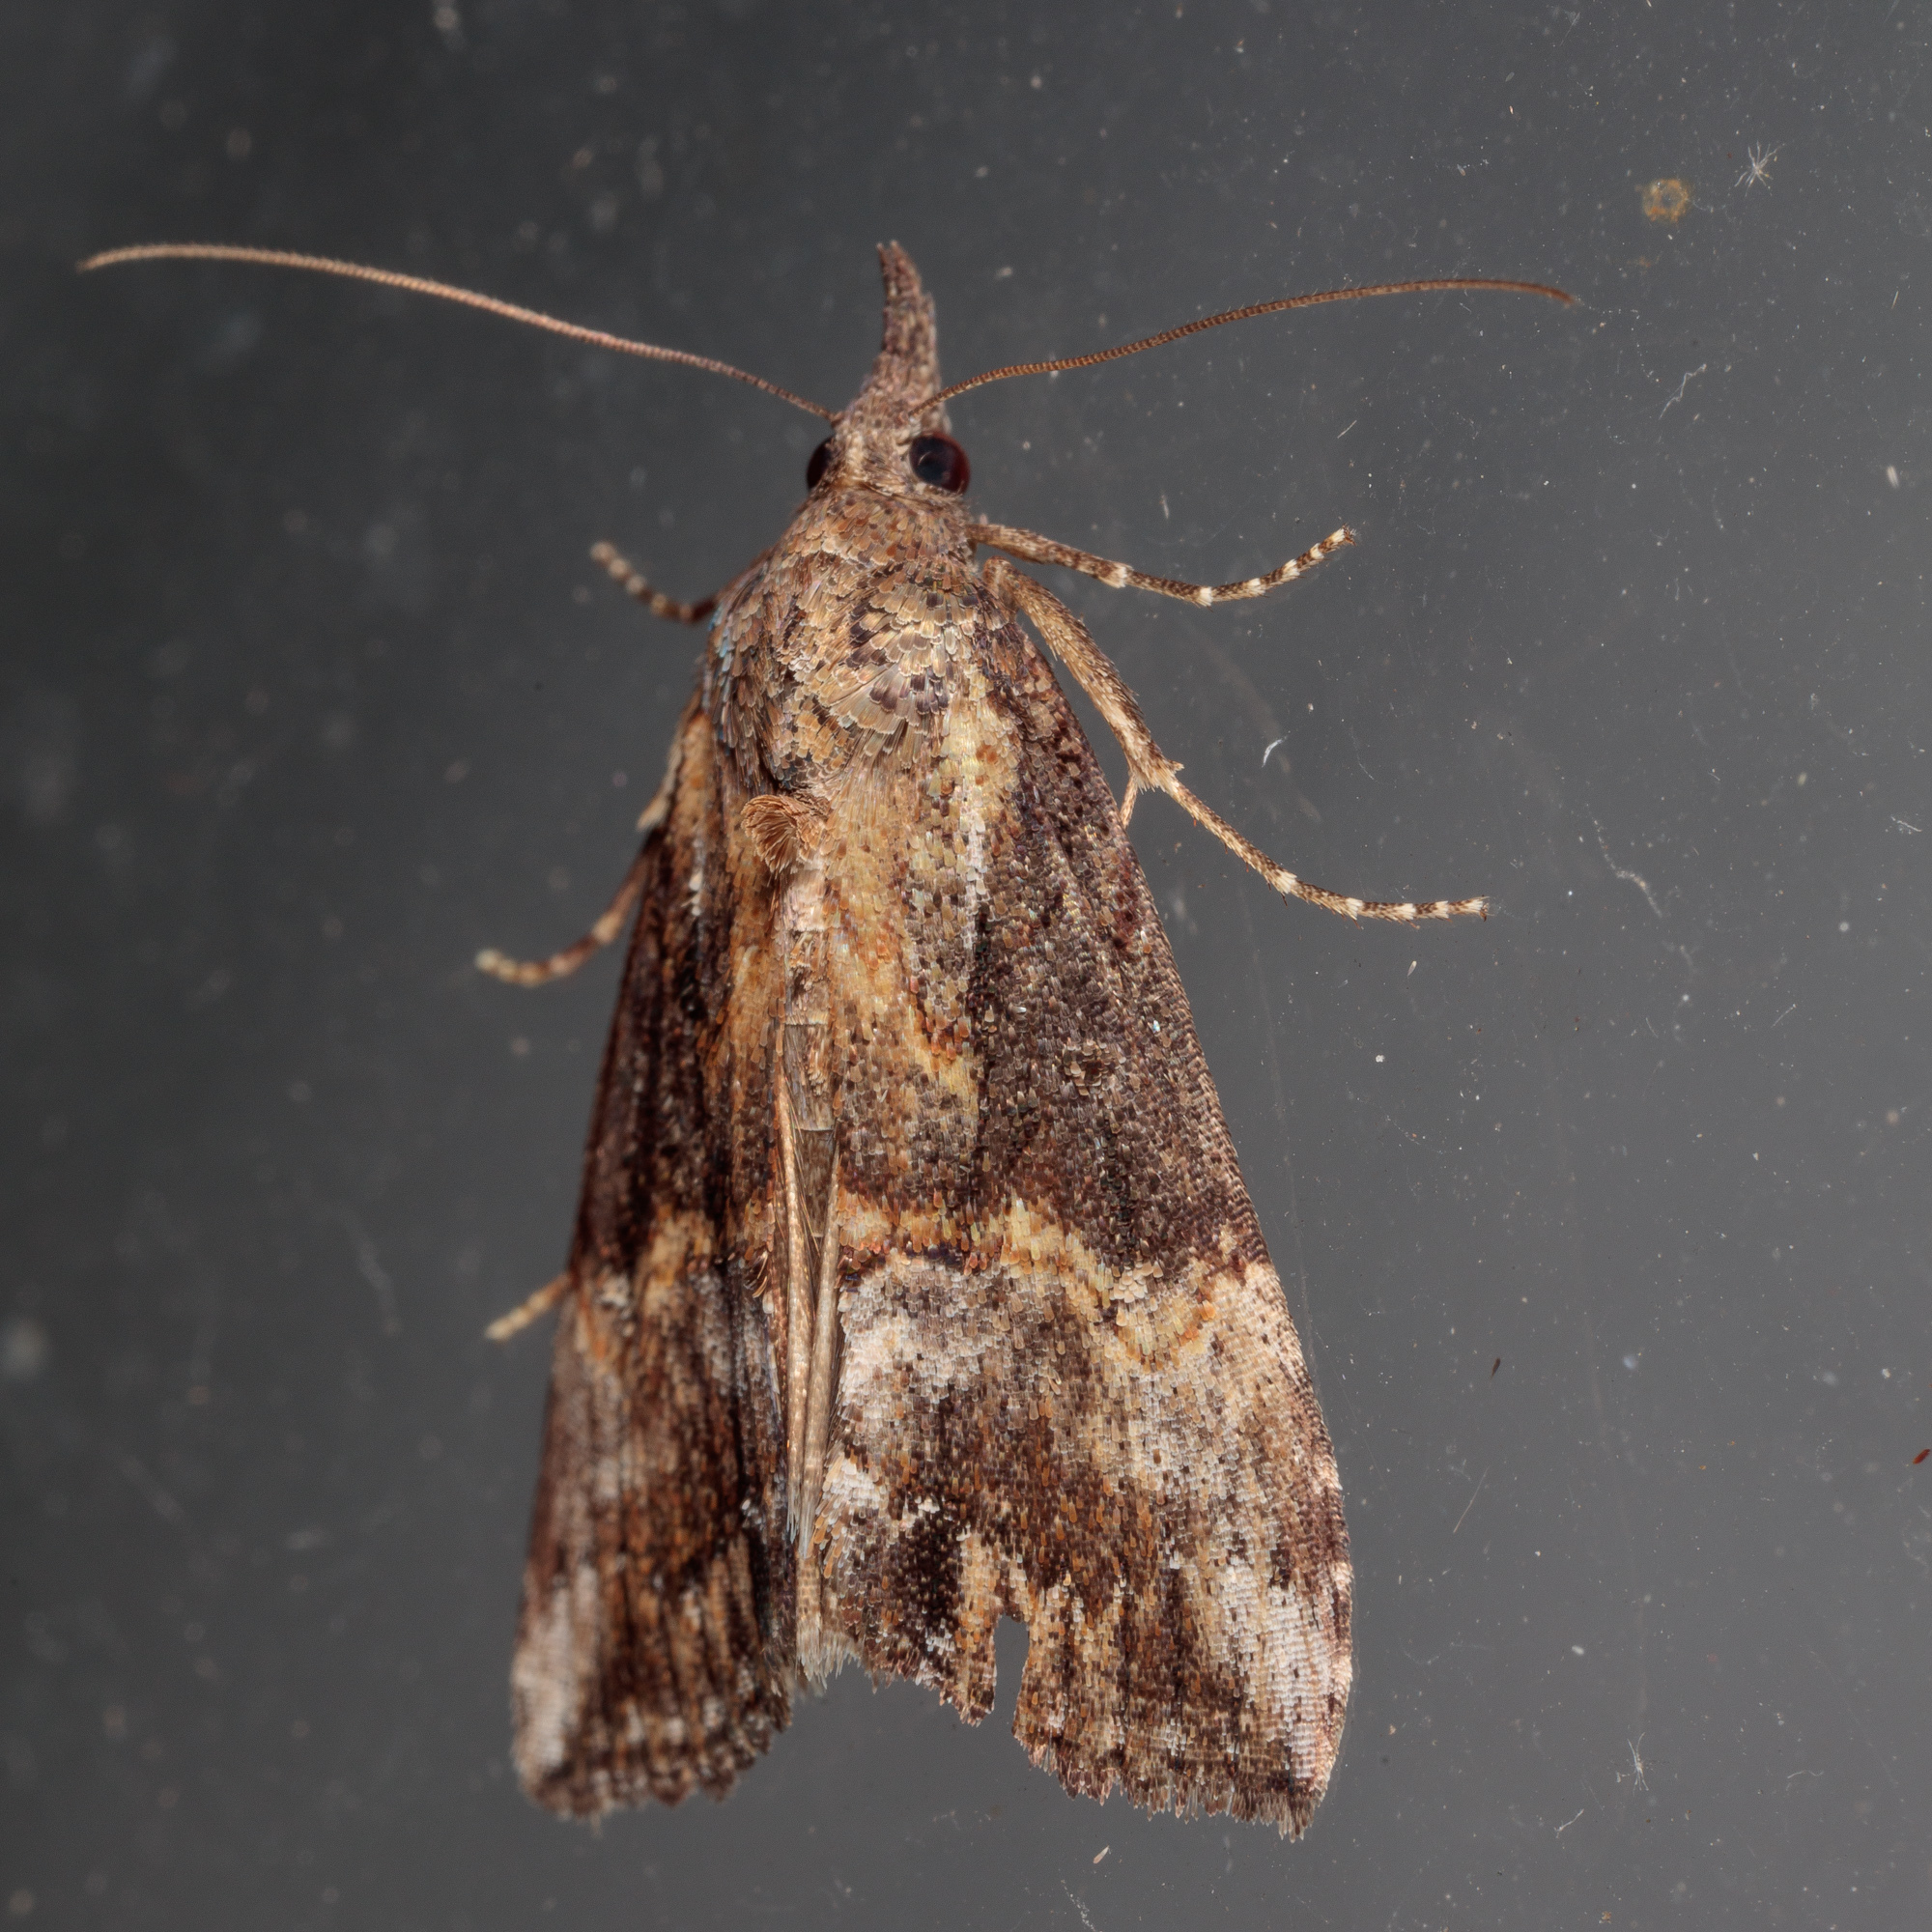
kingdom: Animalia
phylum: Arthropoda
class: Insecta
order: Lepidoptera
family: Erebidae
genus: Hypena
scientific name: Hypena scabra
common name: Green cloverworm
